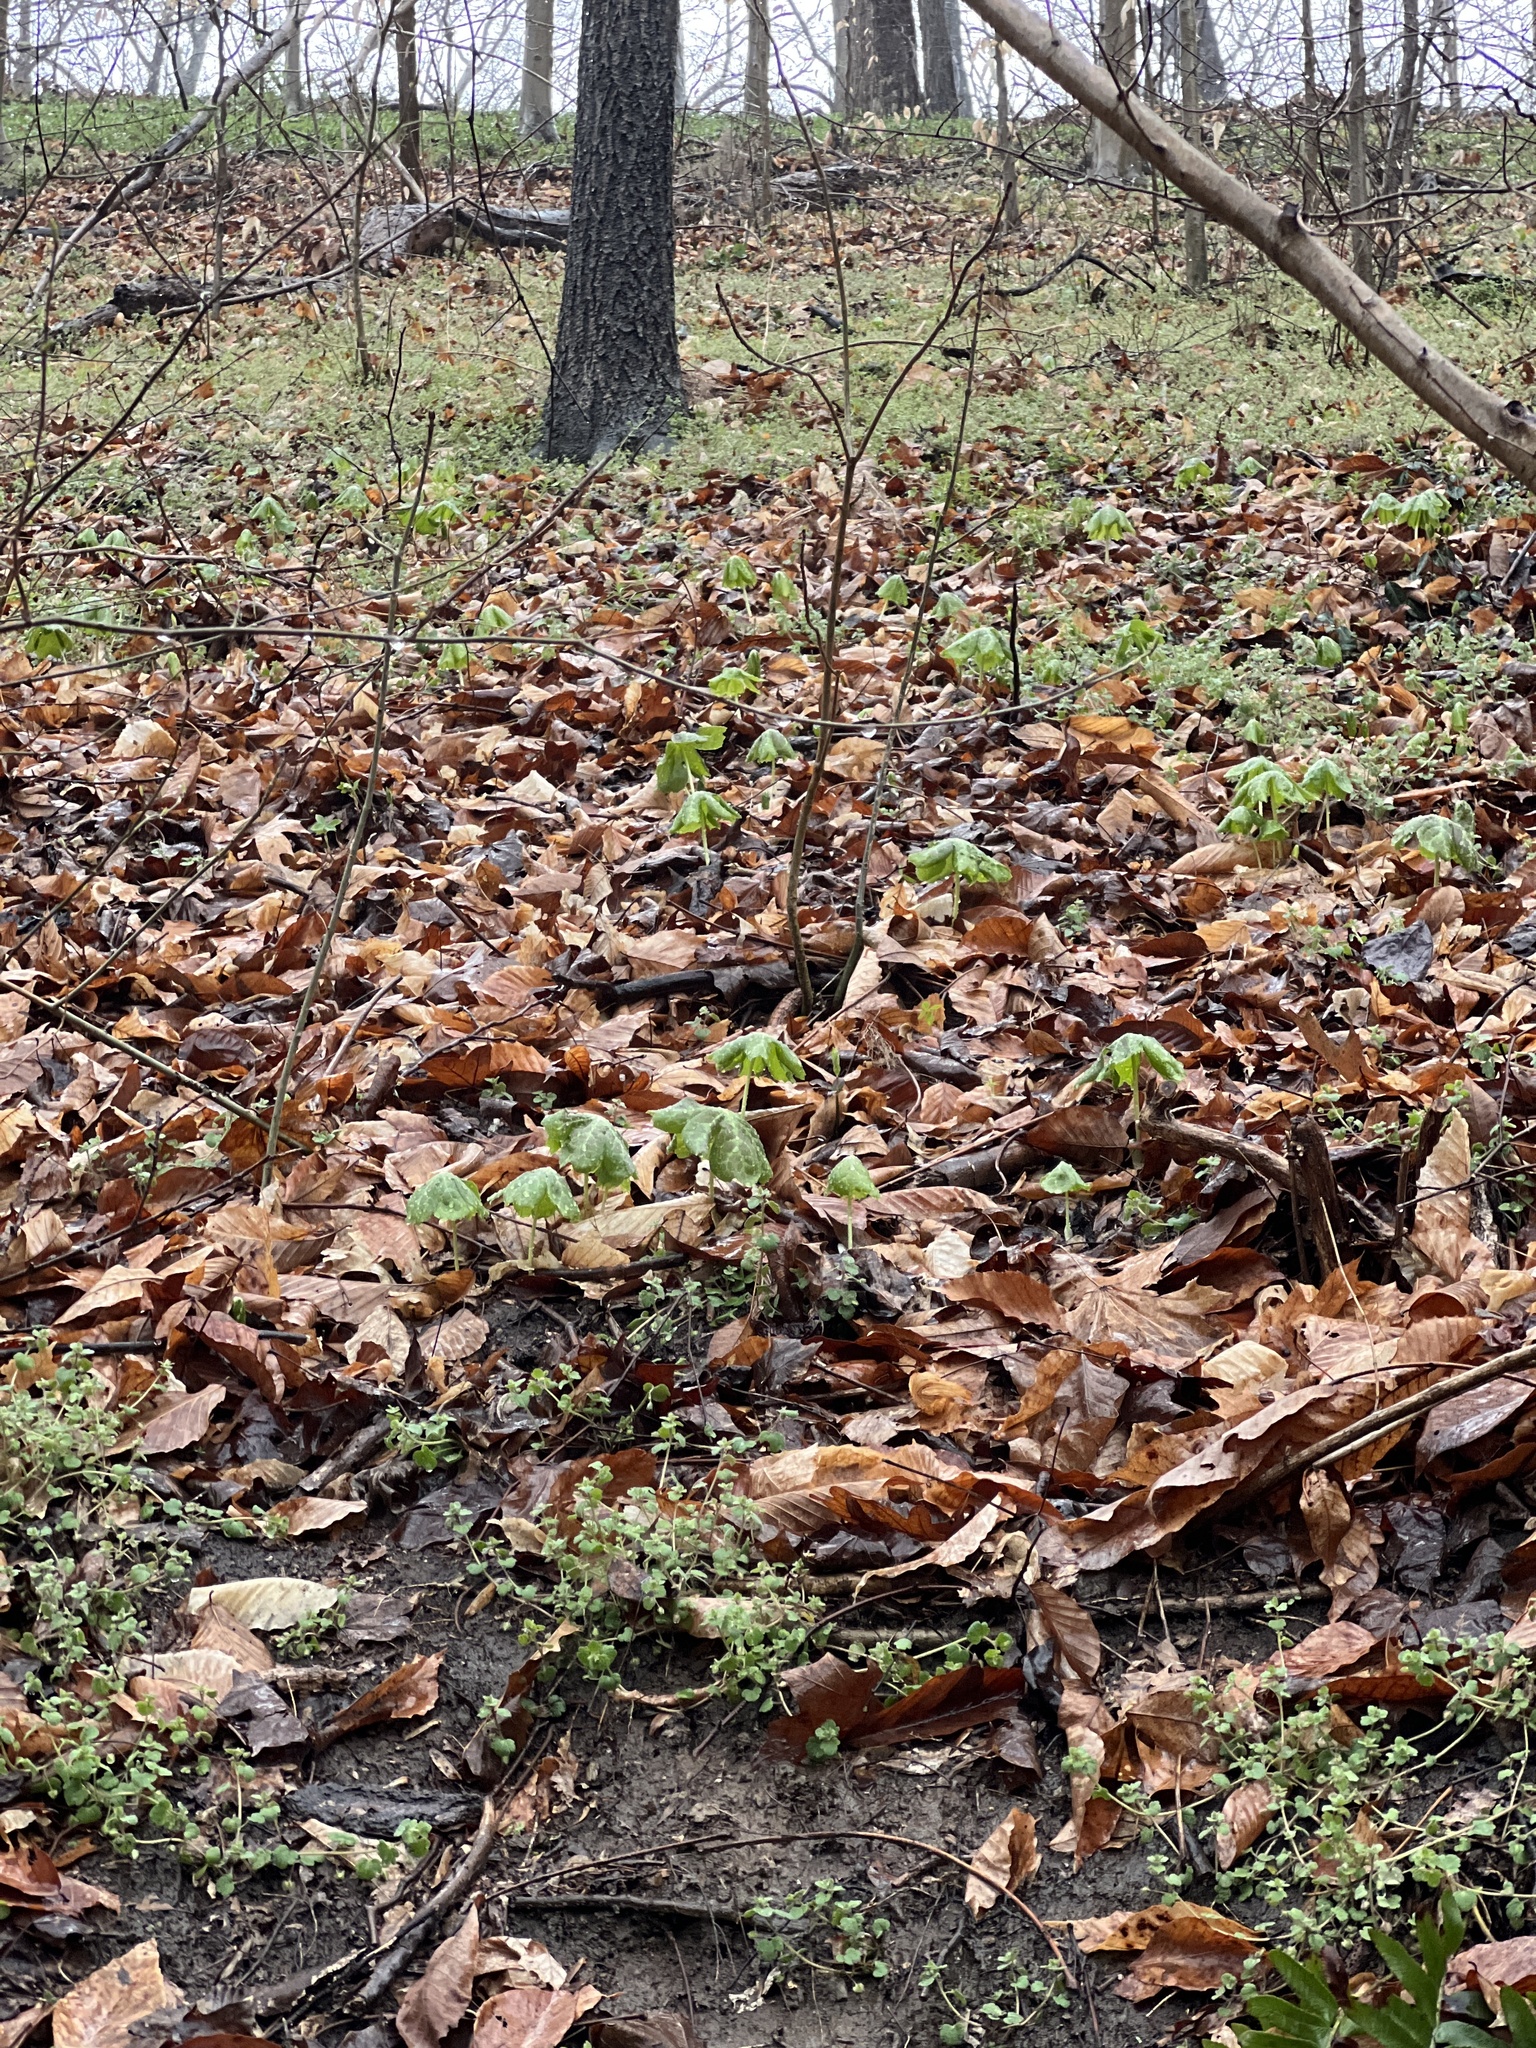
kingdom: Plantae
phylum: Tracheophyta
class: Magnoliopsida
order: Ranunculales
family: Berberidaceae
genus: Podophyllum
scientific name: Podophyllum peltatum
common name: Wild mandrake
